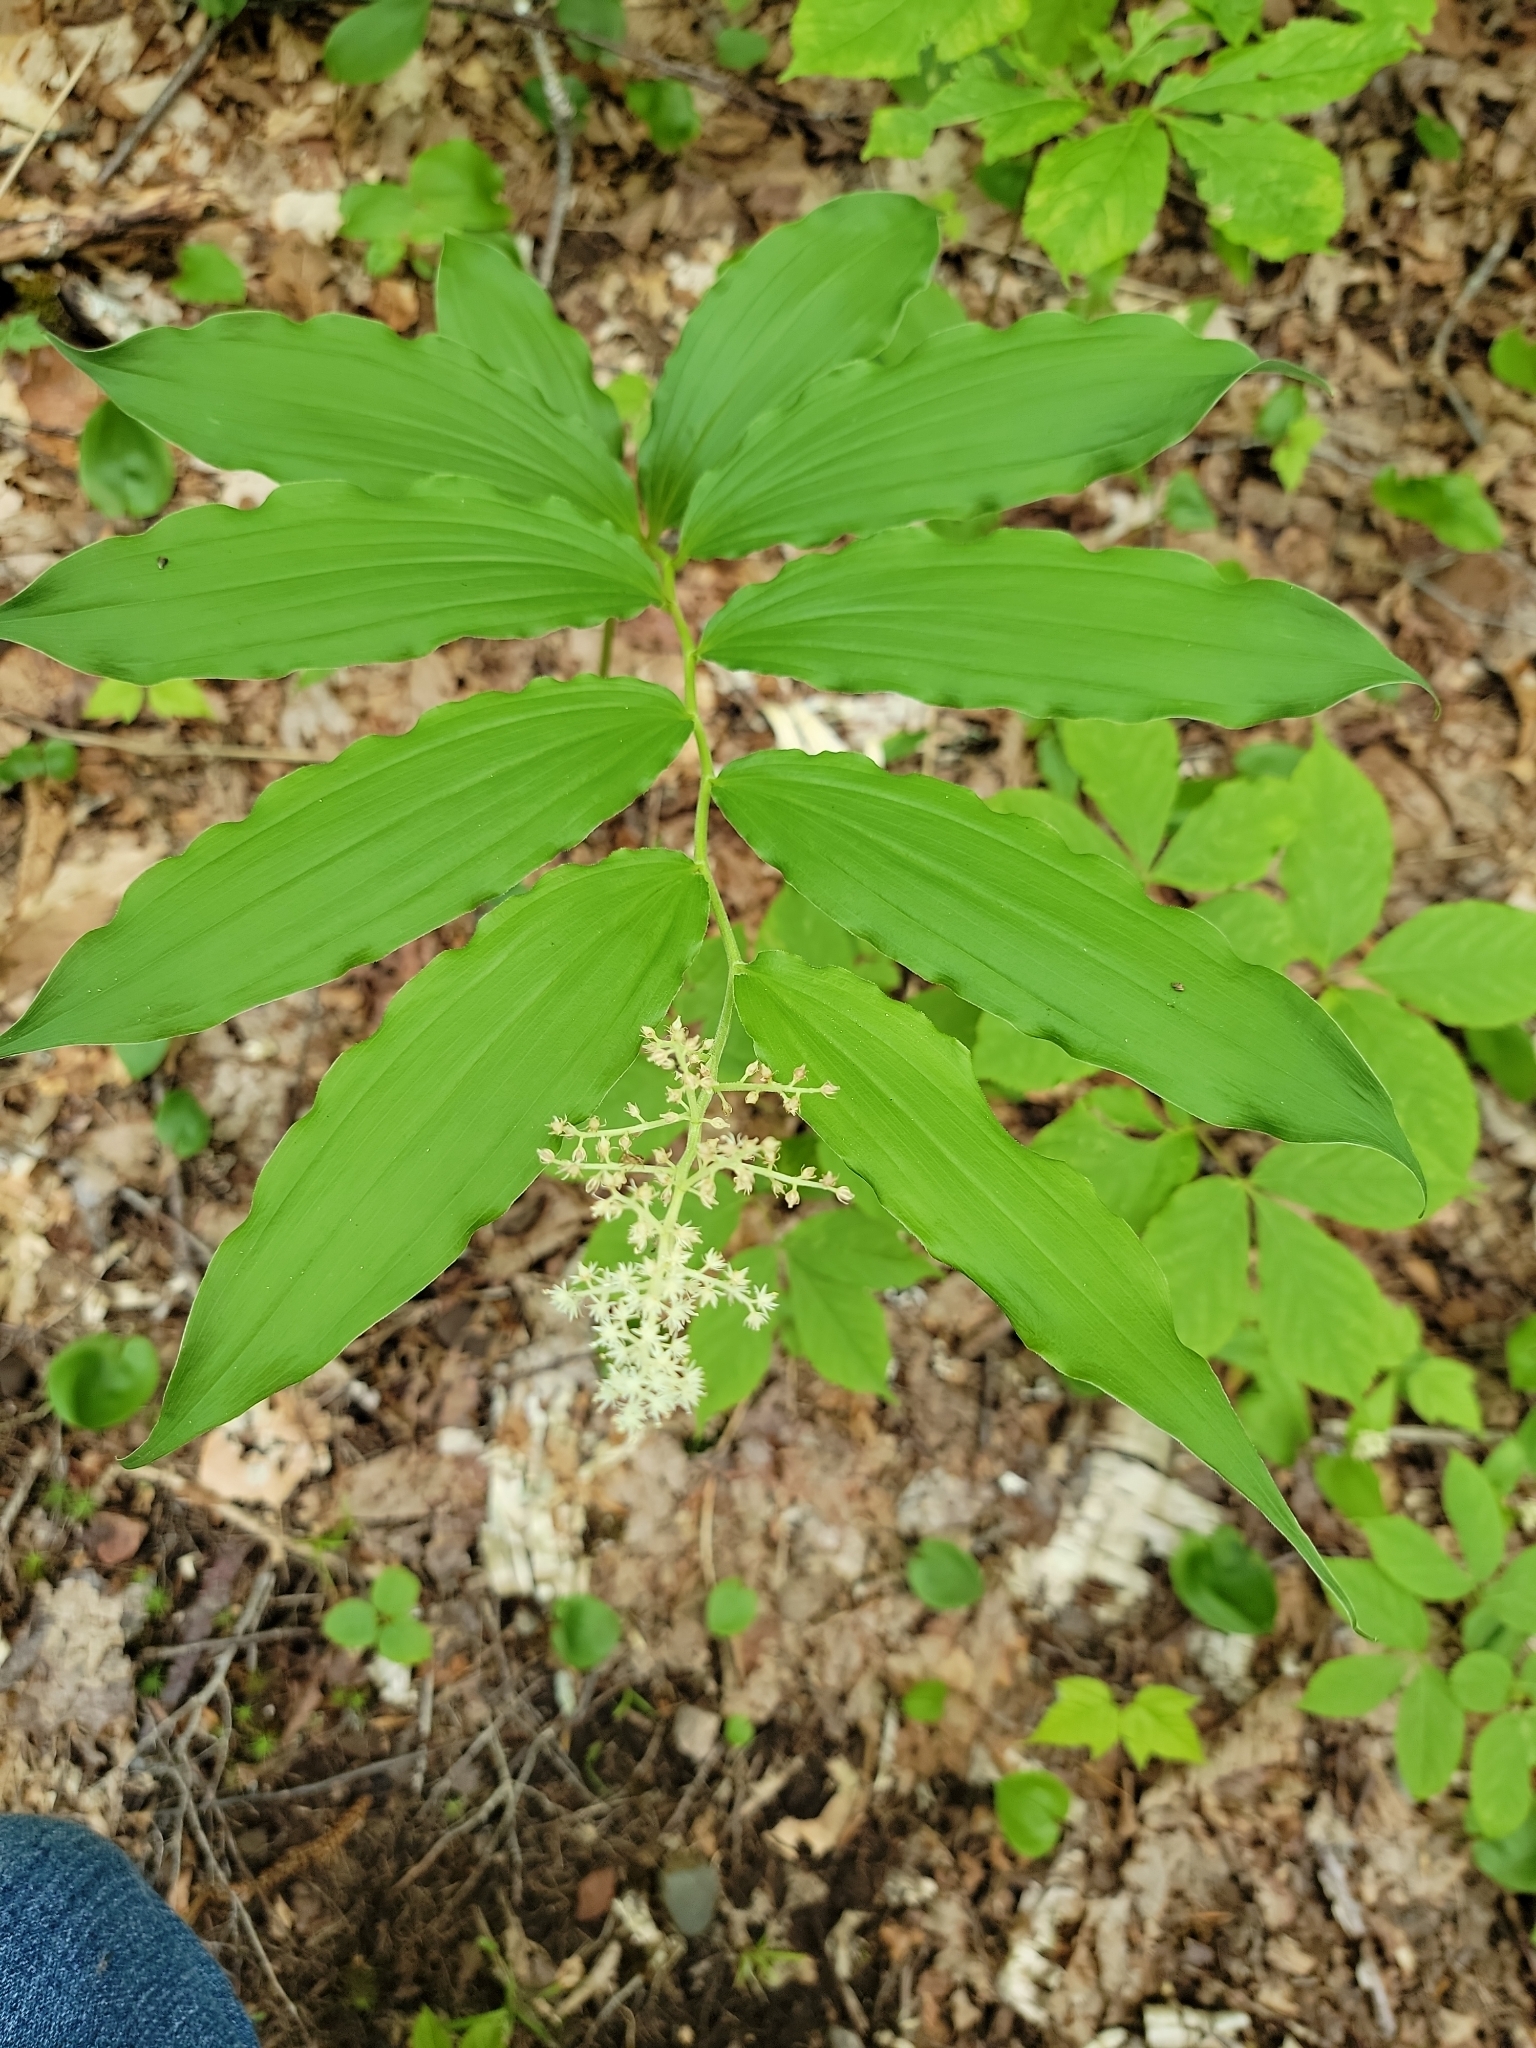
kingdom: Plantae
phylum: Tracheophyta
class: Liliopsida
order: Asparagales
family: Asparagaceae
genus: Maianthemum
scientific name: Maianthemum racemosum
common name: False spikenard
